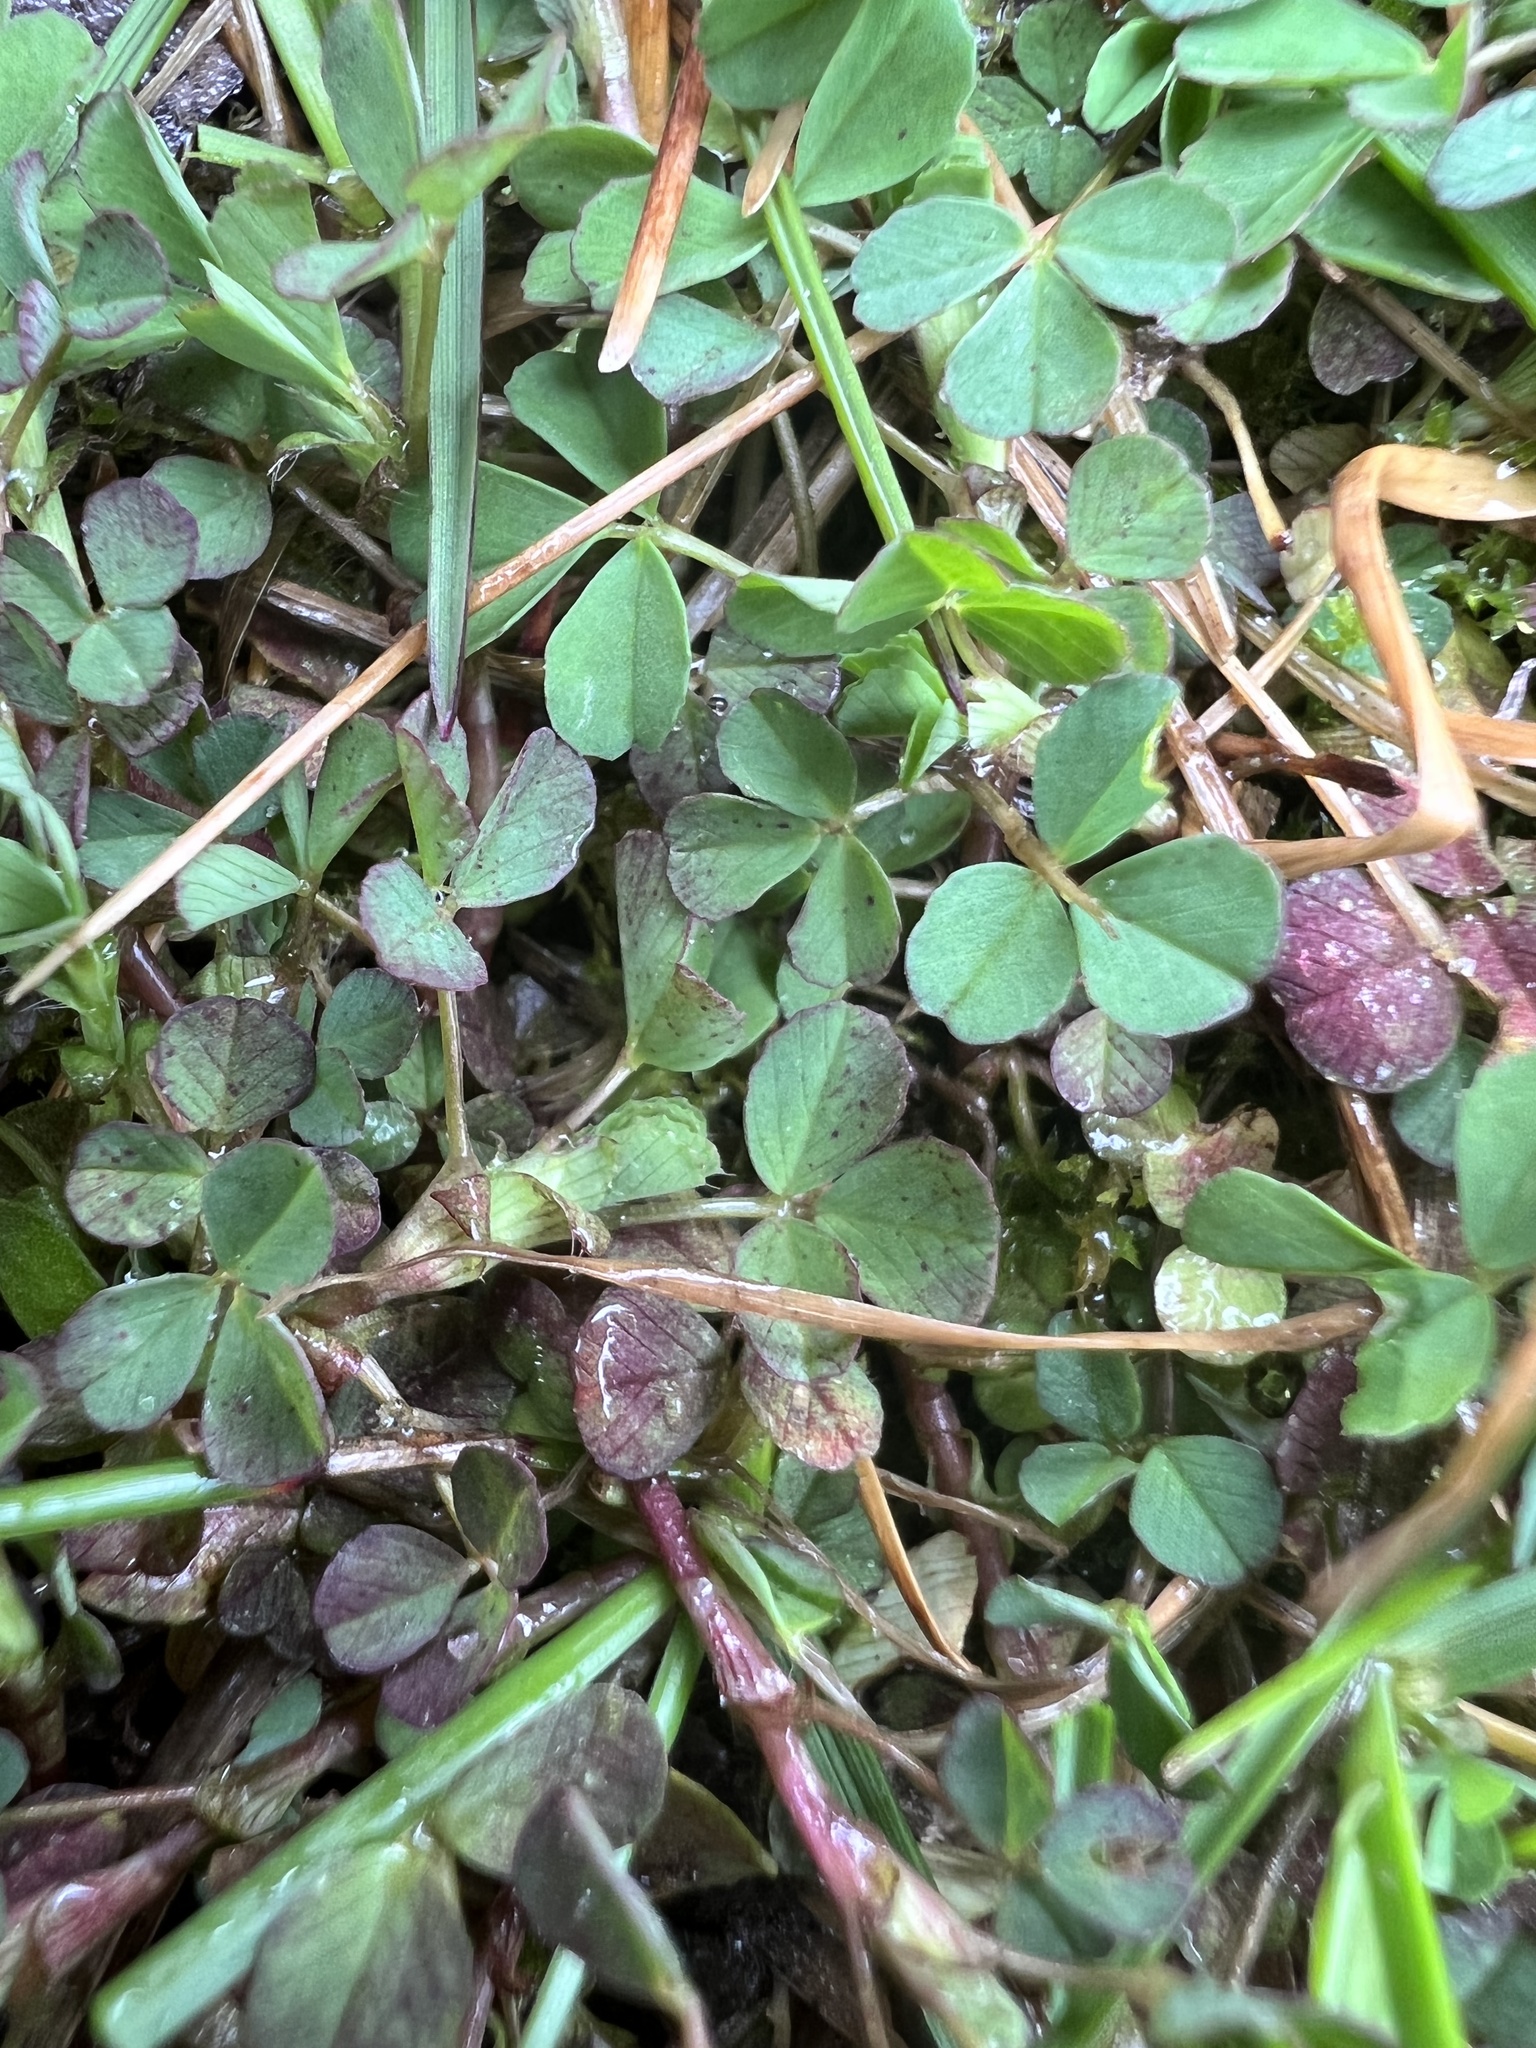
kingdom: Plantae
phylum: Tracheophyta
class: Magnoliopsida
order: Fabales
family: Fabaceae
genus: Trifolium
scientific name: Trifolium dubium
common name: Suckling clover
